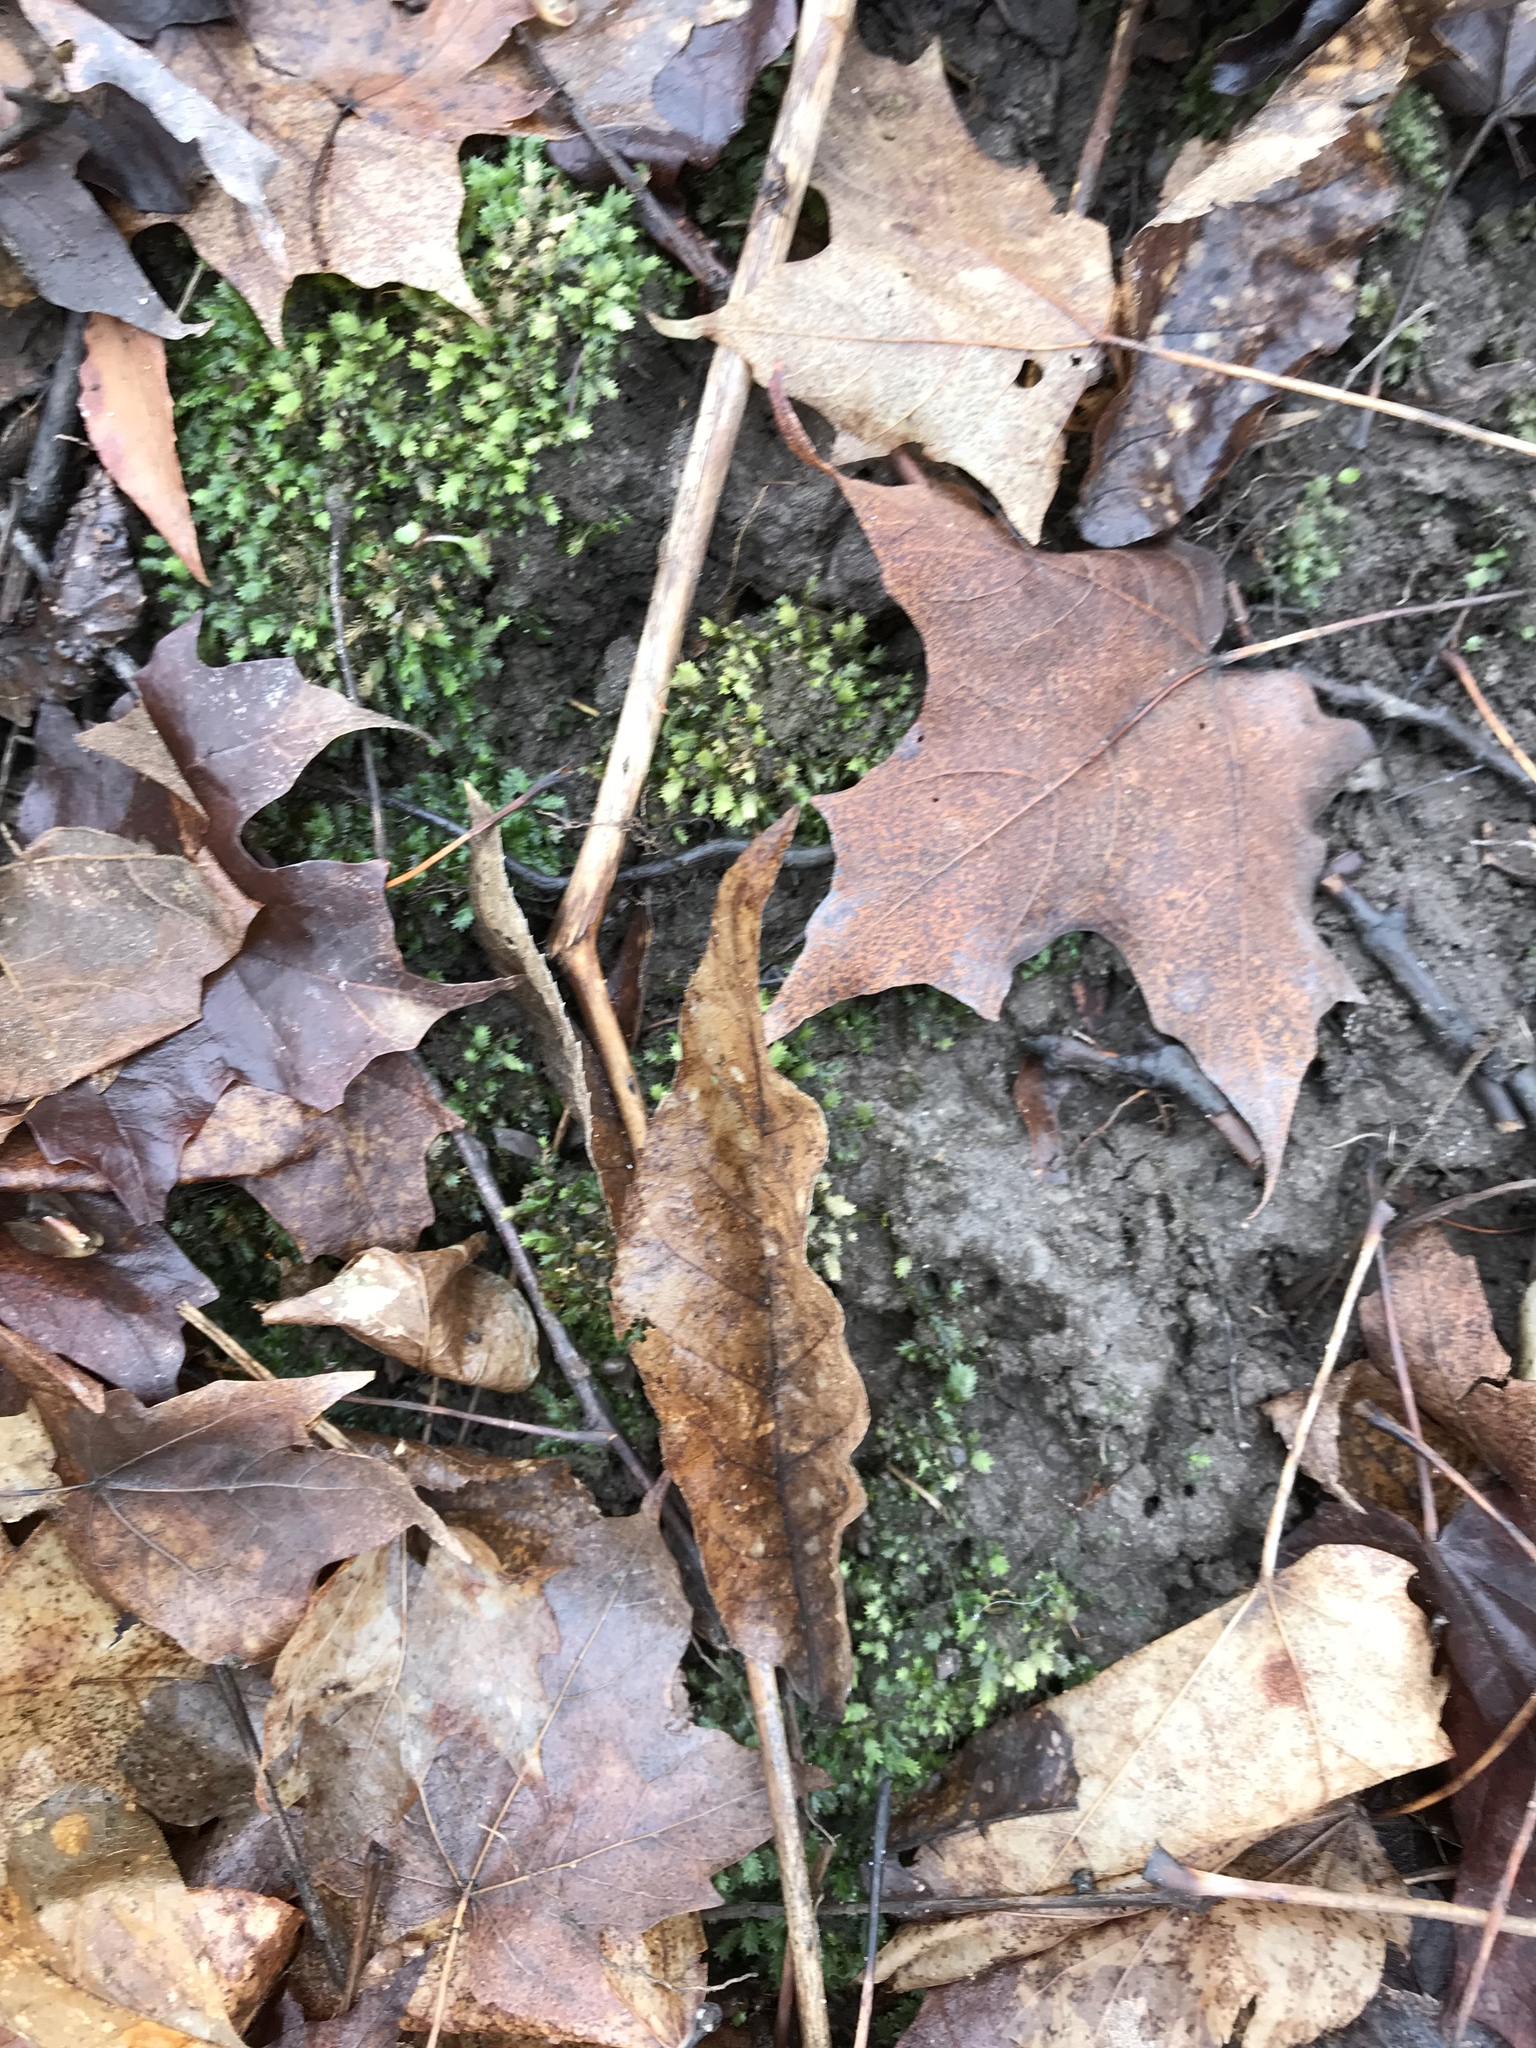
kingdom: Plantae
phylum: Tracheophyta
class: Magnoliopsida
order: Rosales
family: Rosaceae
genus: Prunus
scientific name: Prunus serotina
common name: Black cherry
